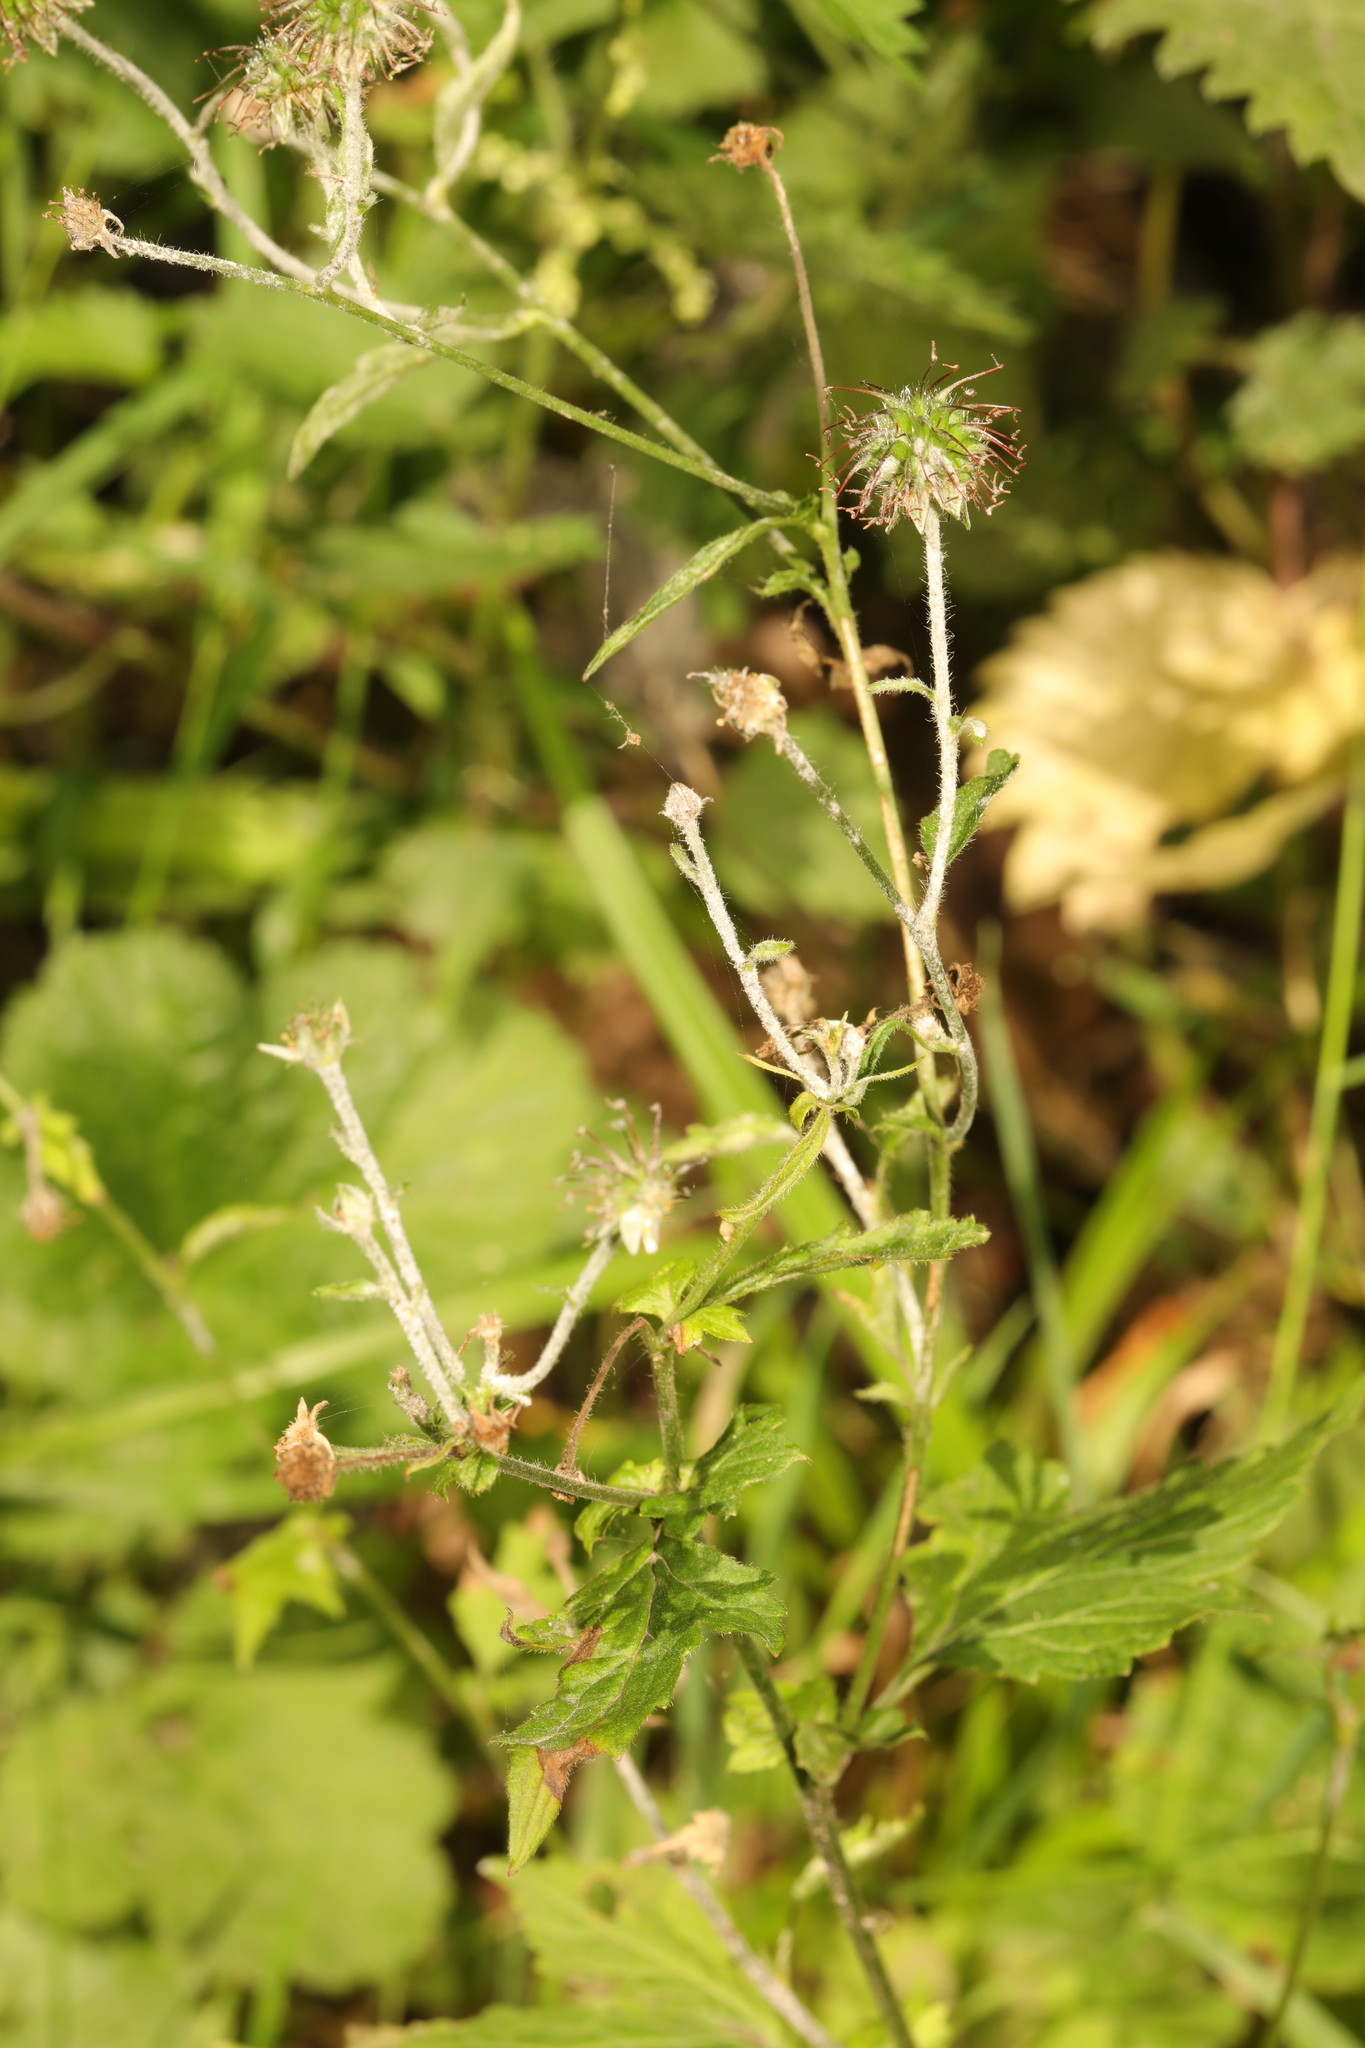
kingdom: Plantae
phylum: Tracheophyta
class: Magnoliopsida
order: Rosales
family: Rosaceae
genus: Geum
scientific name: Geum urbanum
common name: Wood avens
